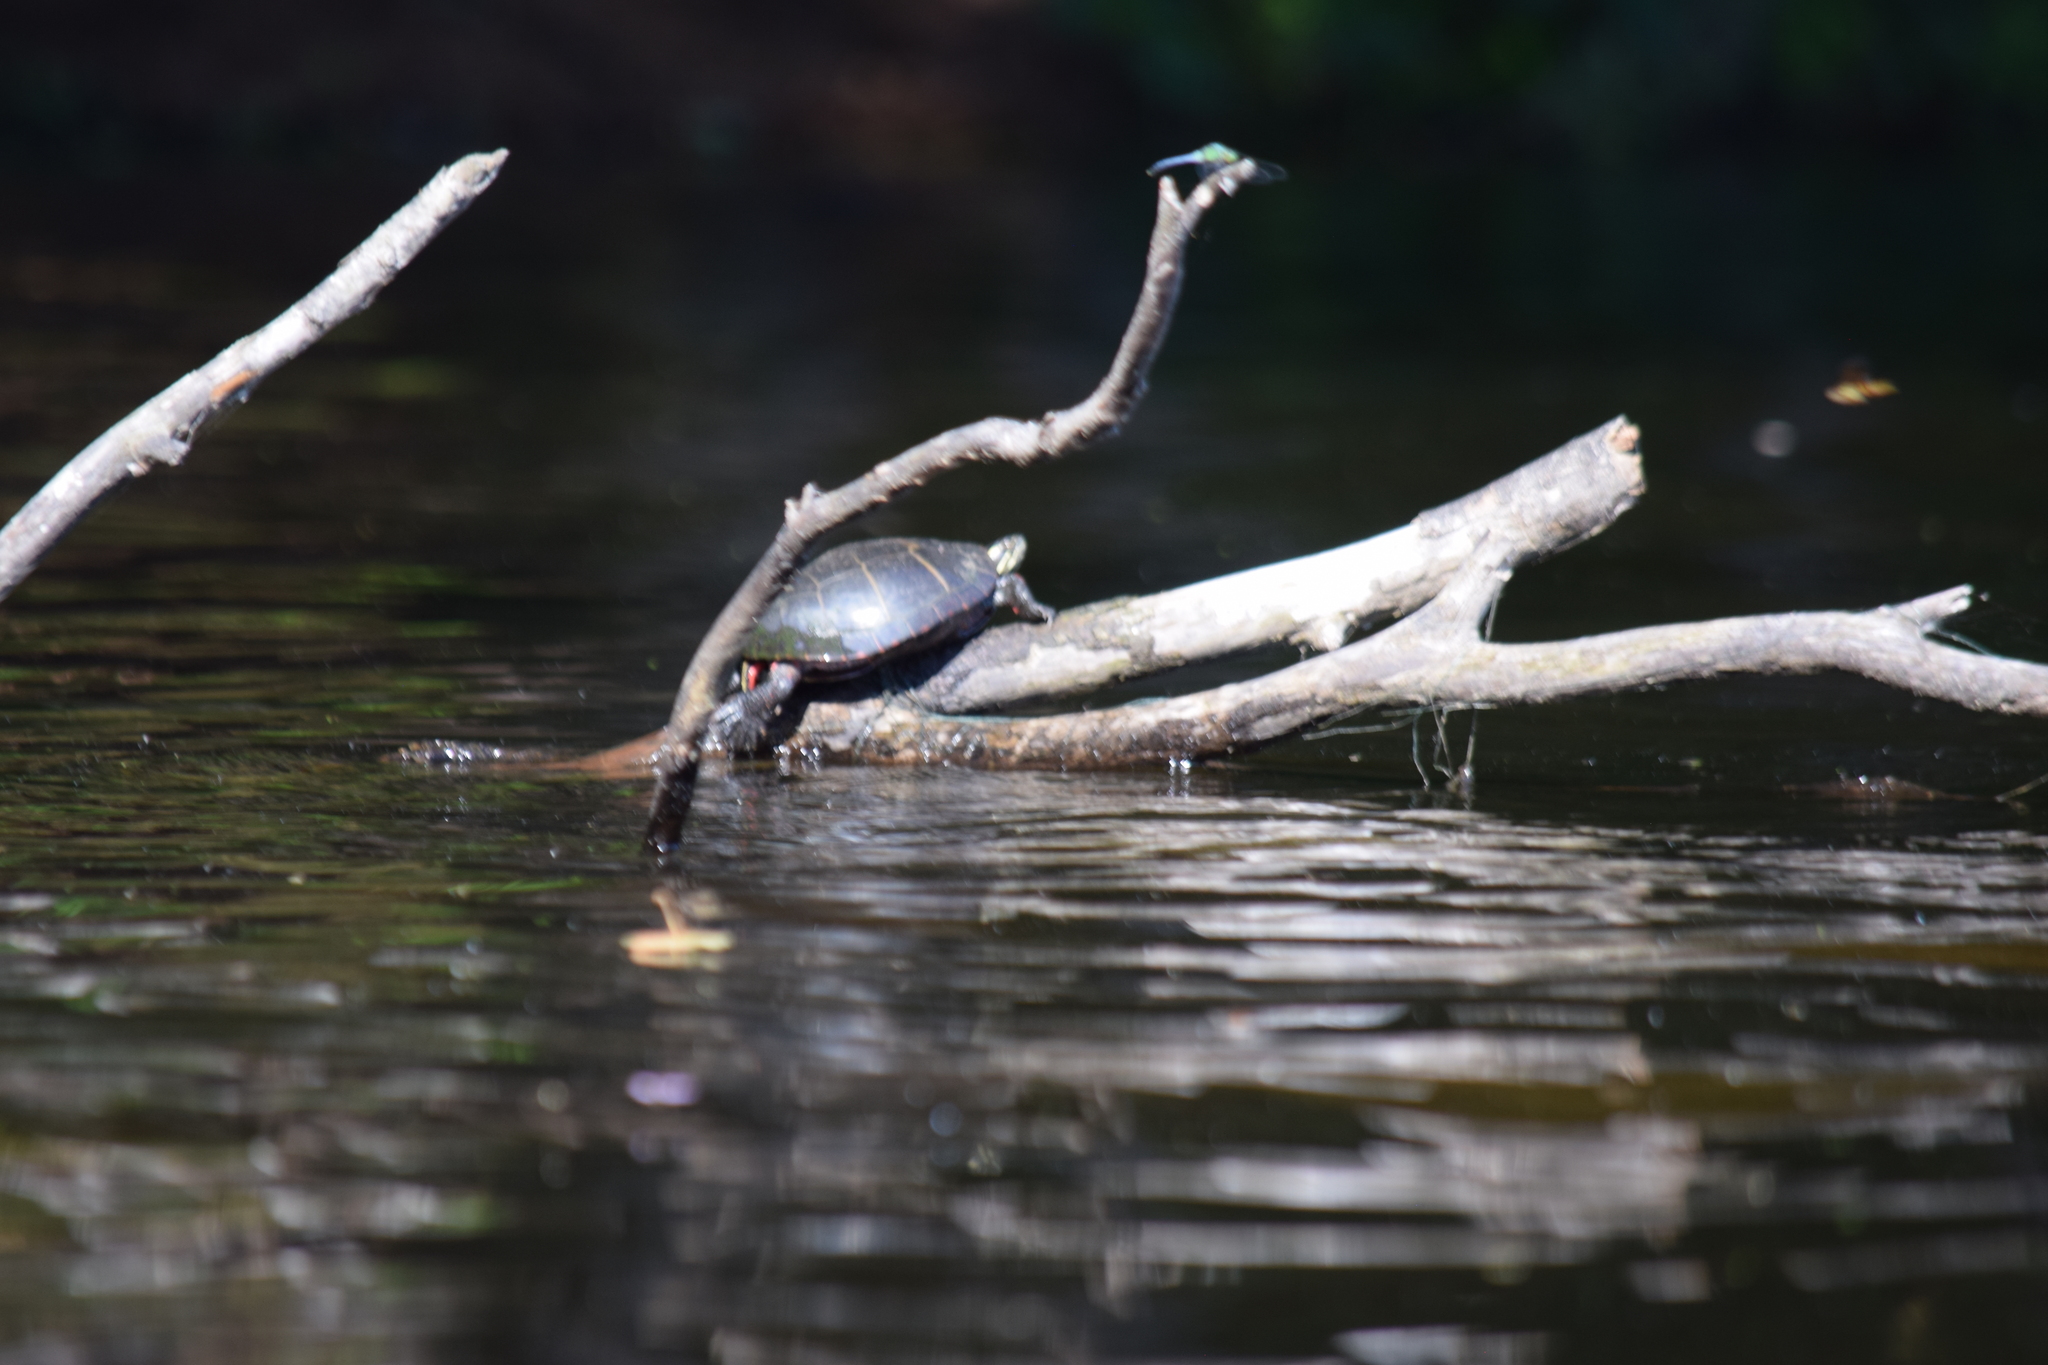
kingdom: Animalia
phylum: Chordata
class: Testudines
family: Emydidae
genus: Chrysemys
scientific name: Chrysemys picta
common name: Painted turtle
